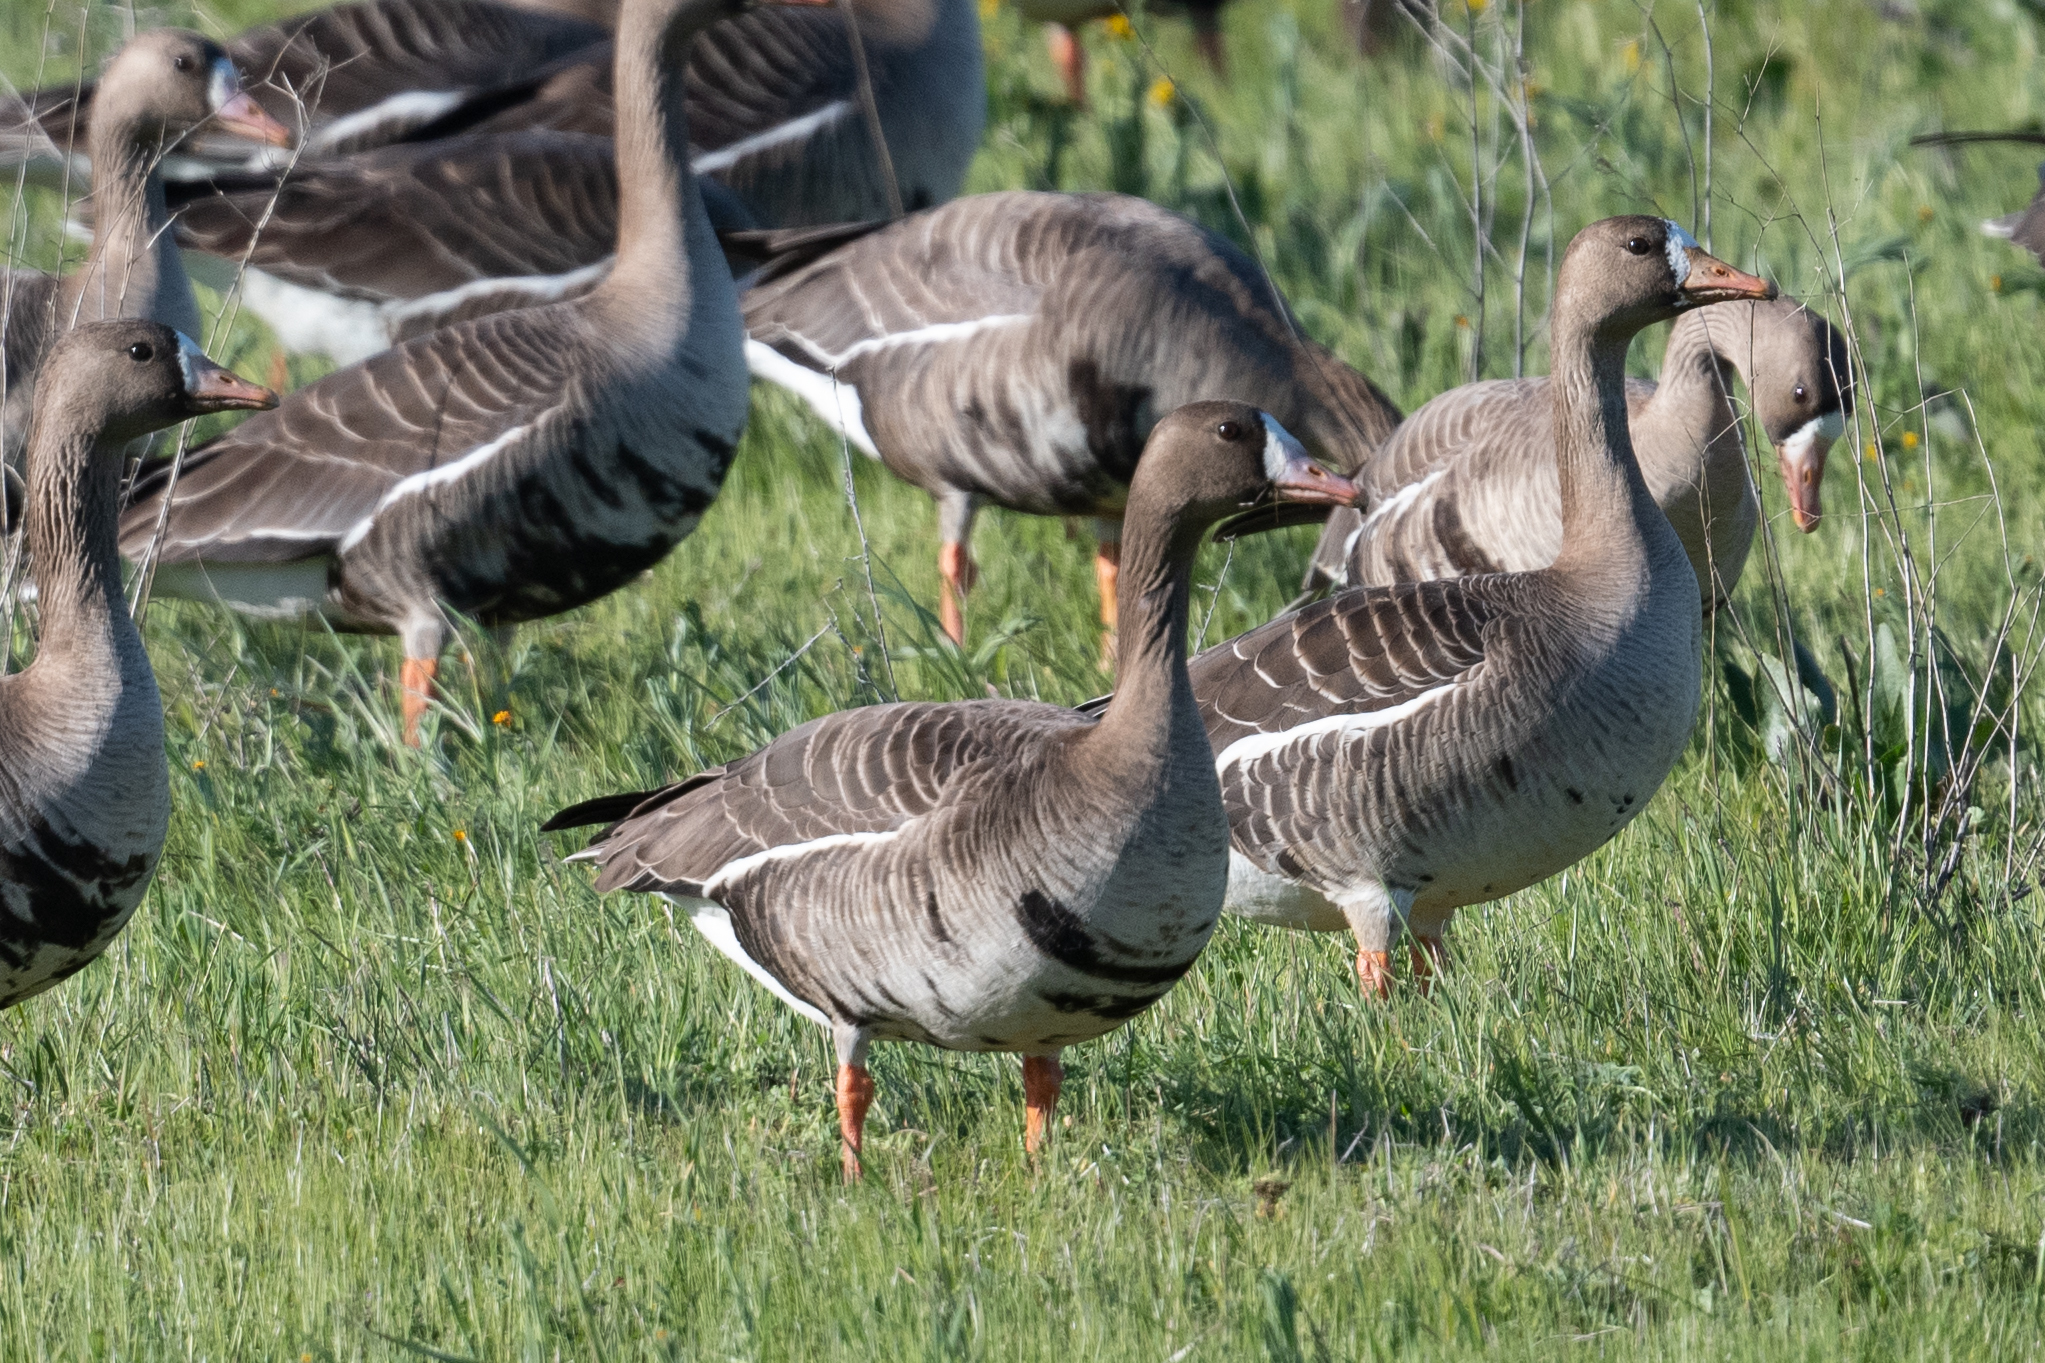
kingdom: Animalia
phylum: Chordata
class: Aves
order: Anseriformes
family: Anatidae
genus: Anser
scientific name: Anser albifrons
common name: Greater white-fronted goose
